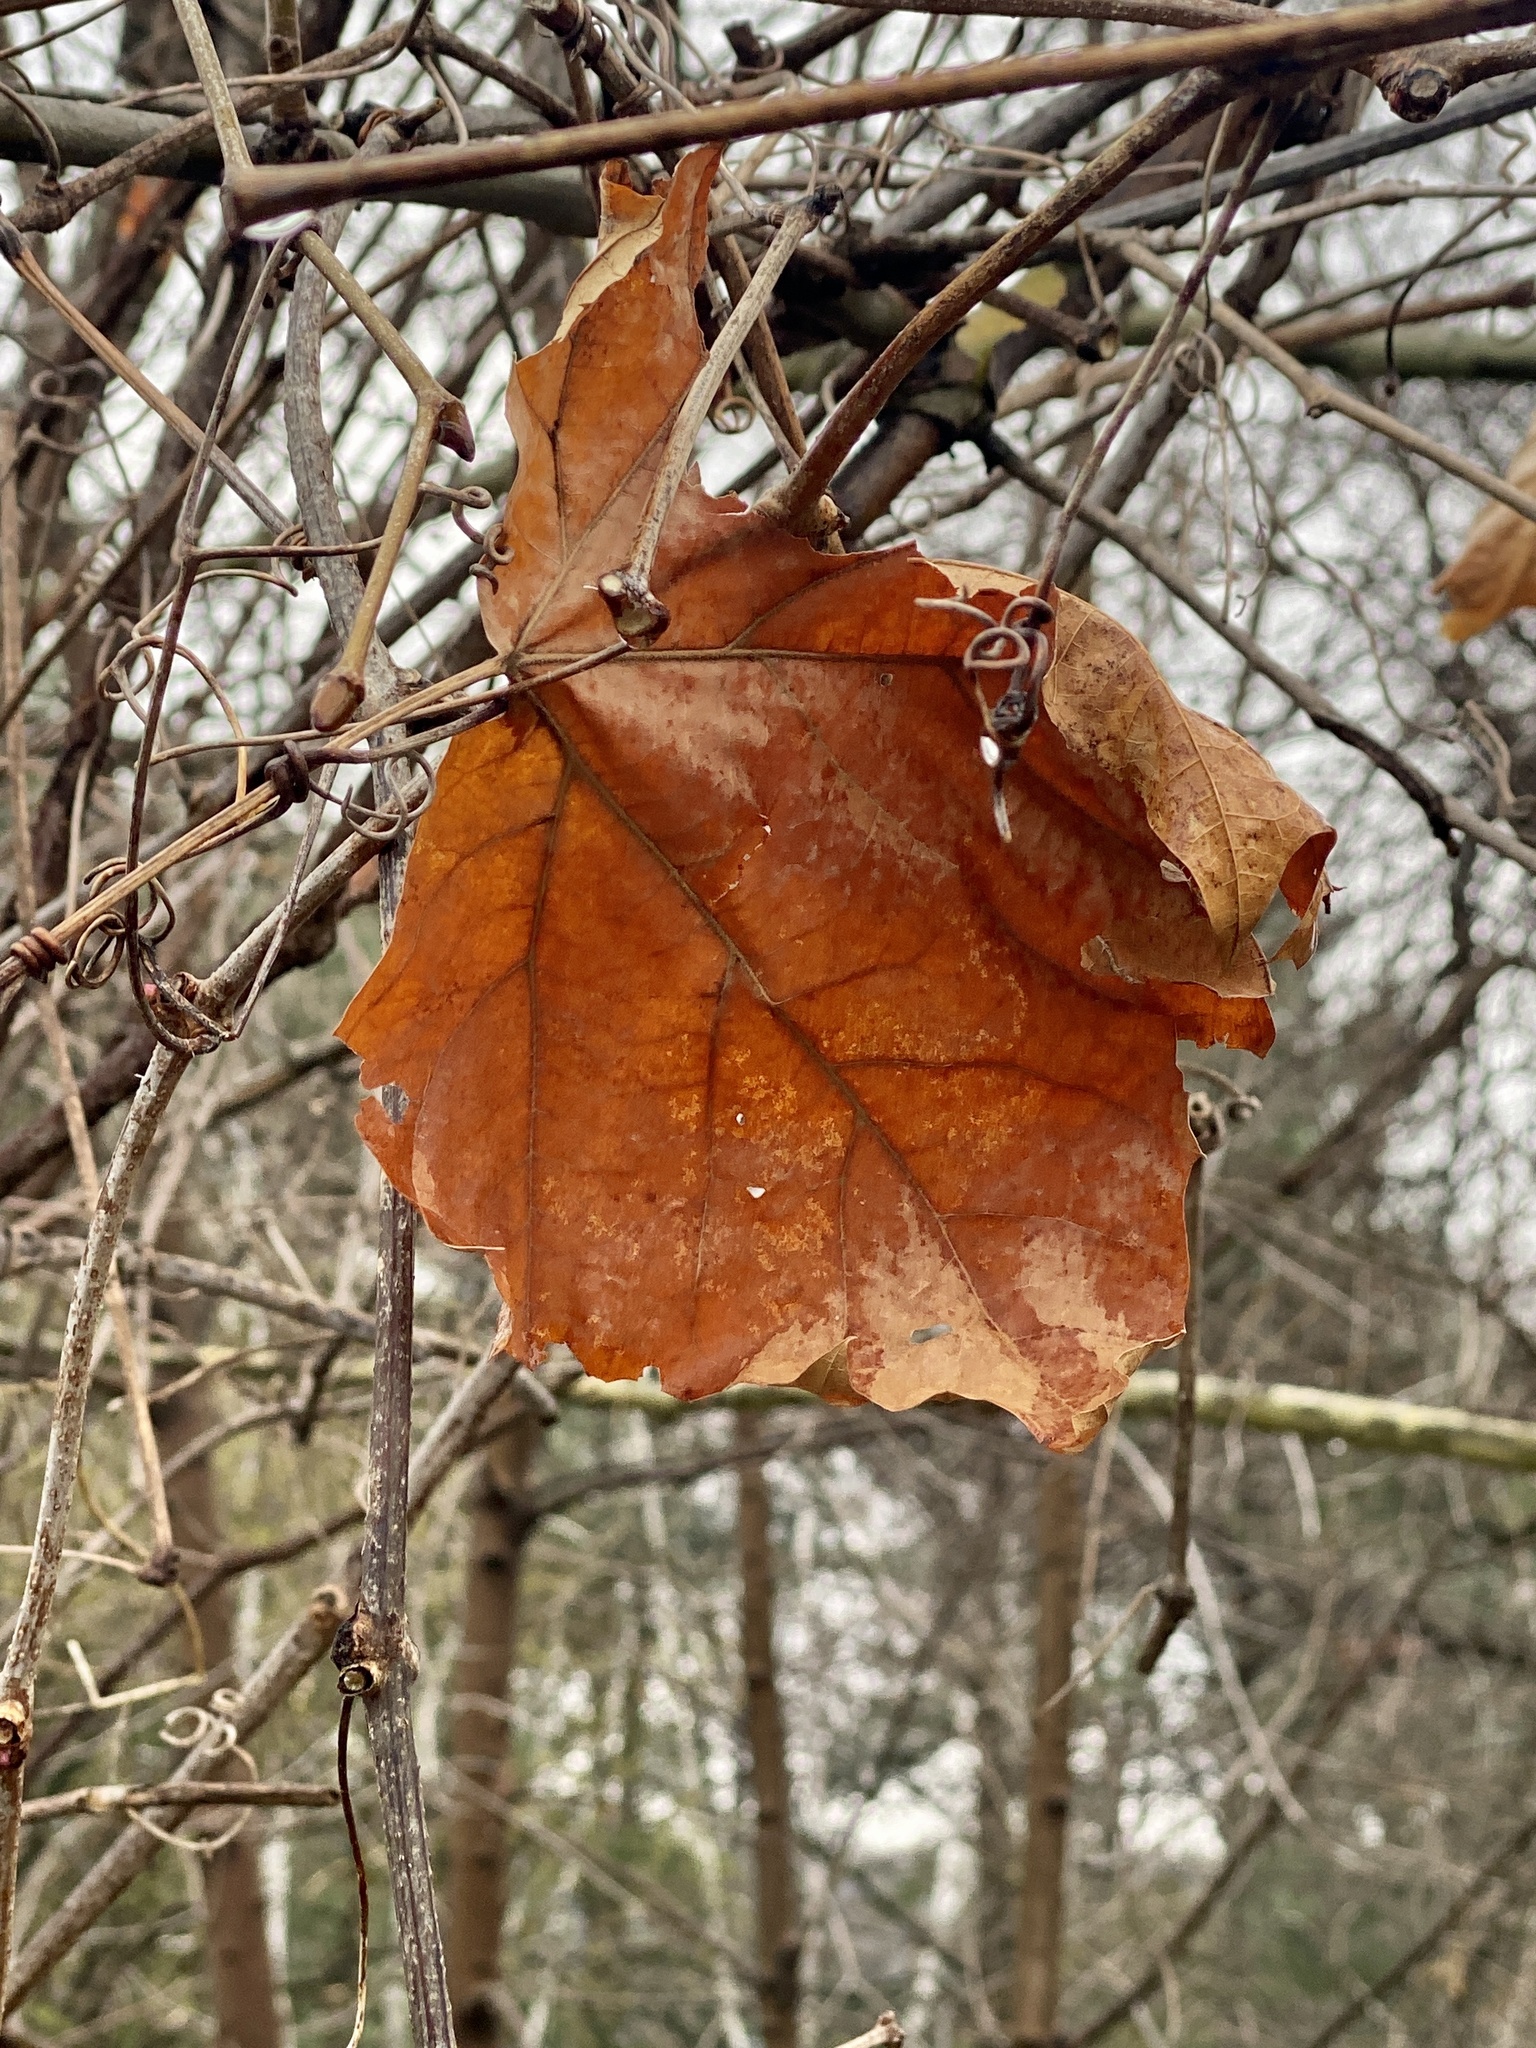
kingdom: Plantae
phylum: Tracheophyta
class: Magnoliopsida
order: Proteales
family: Platanaceae
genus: Platanus
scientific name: Platanus occidentalis
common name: American sycamore
